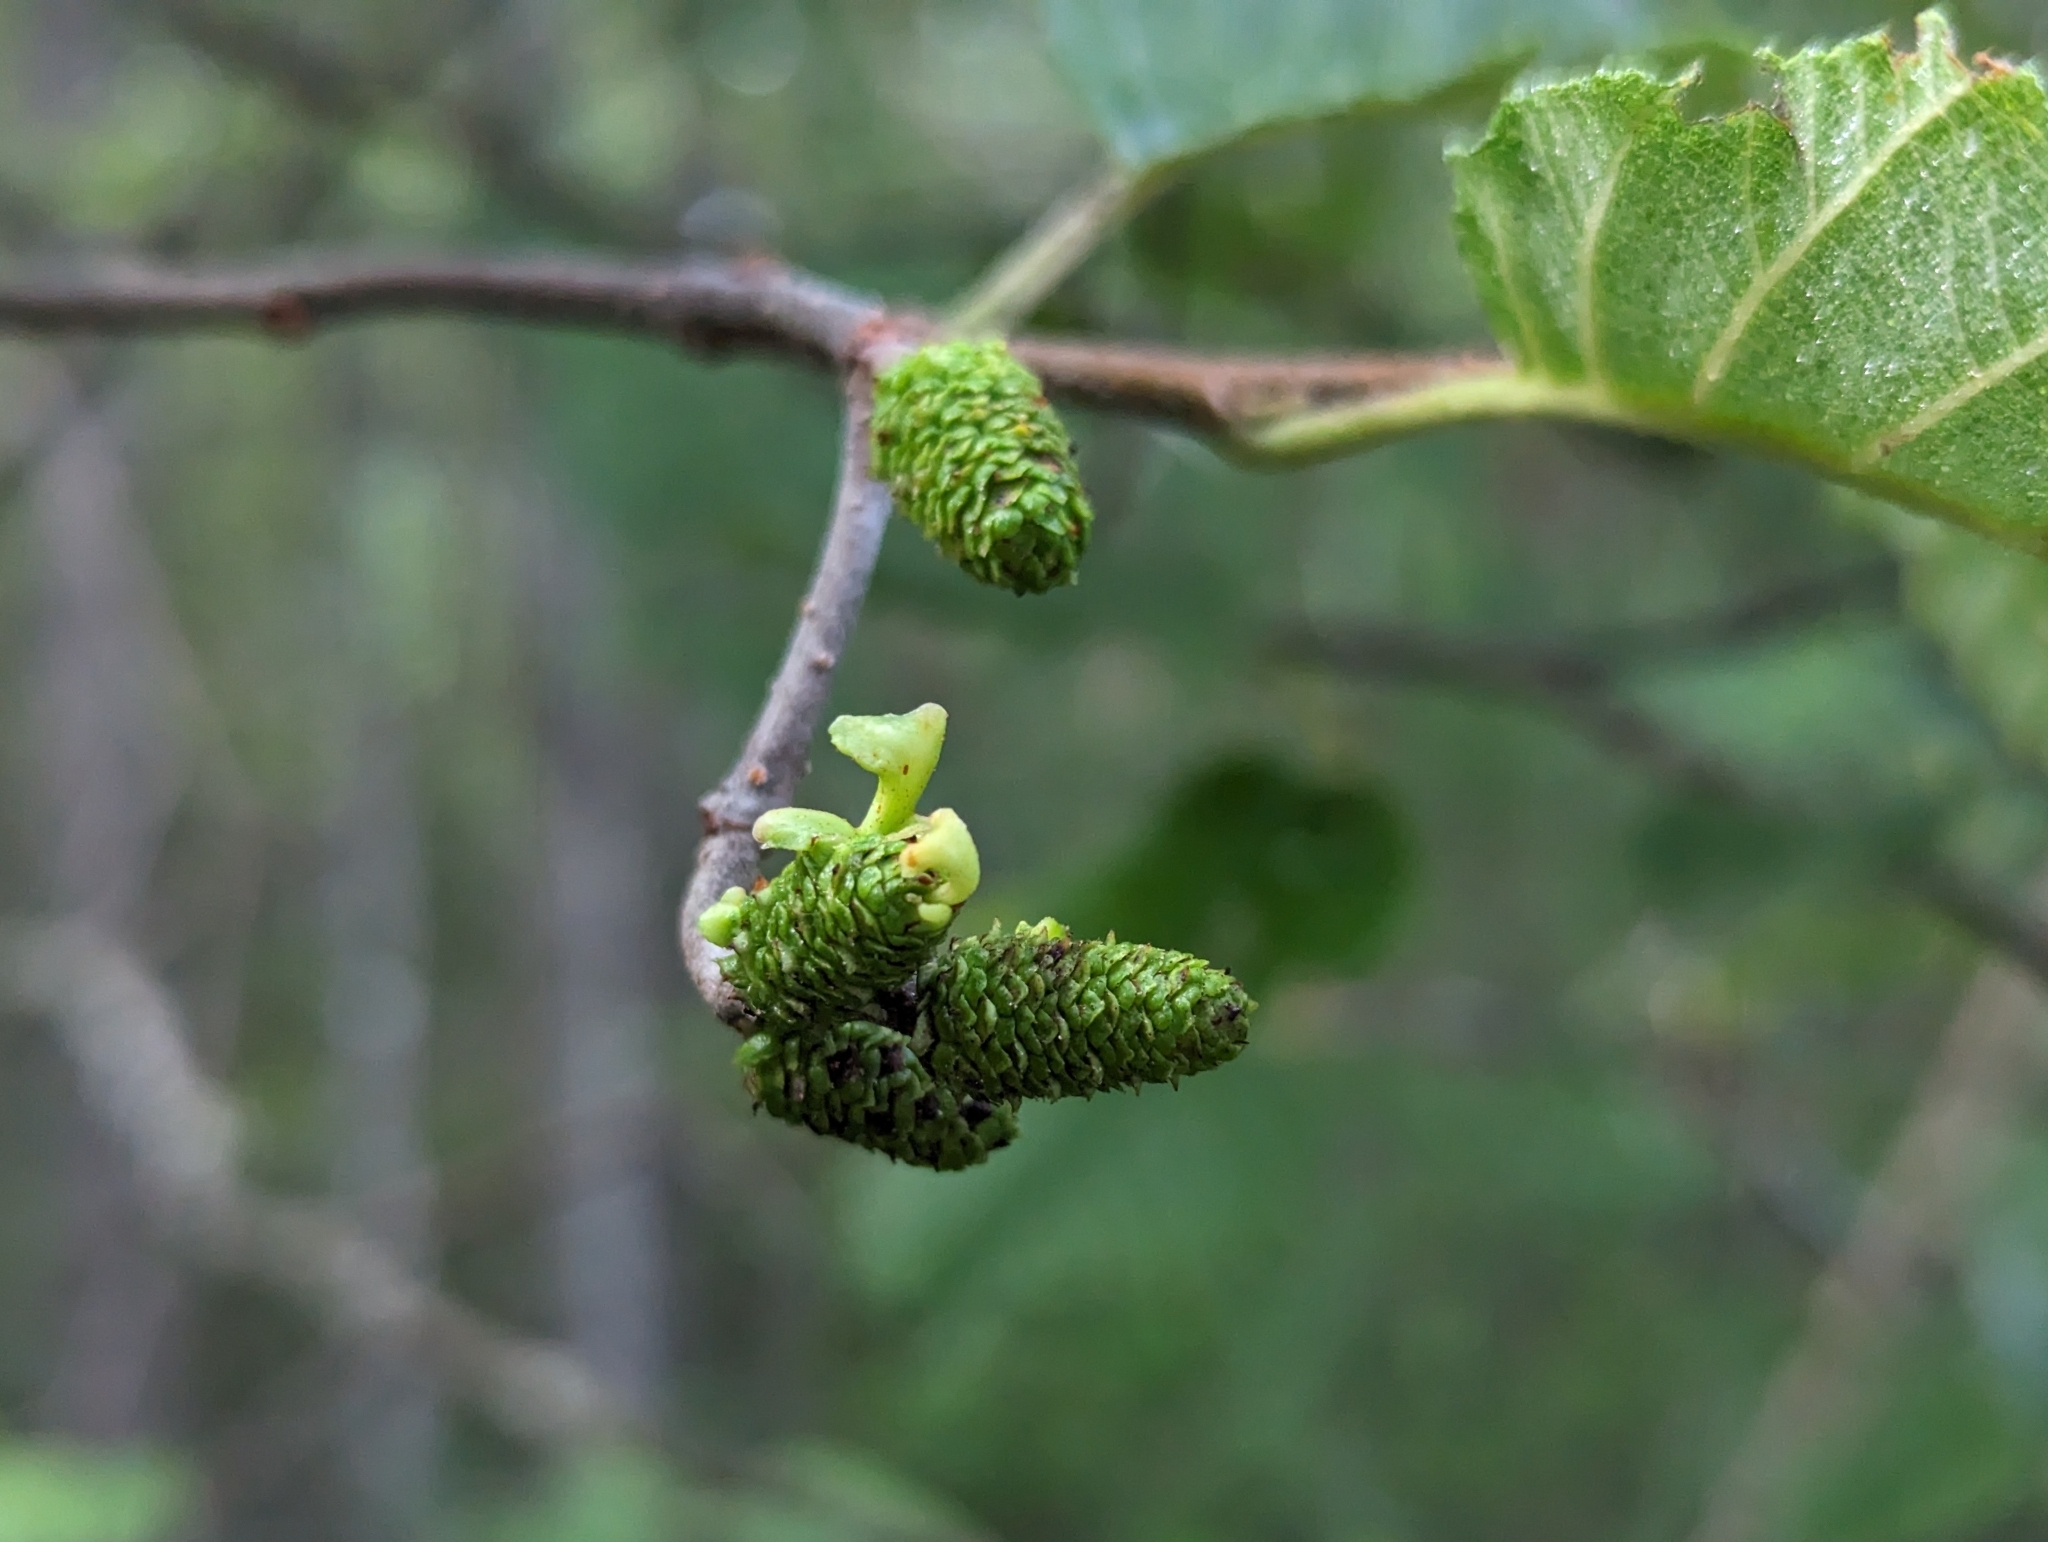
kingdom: Plantae
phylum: Tracheophyta
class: Magnoliopsida
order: Fagales
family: Betulaceae
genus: Alnus
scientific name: Alnus incana
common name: Grey alder
